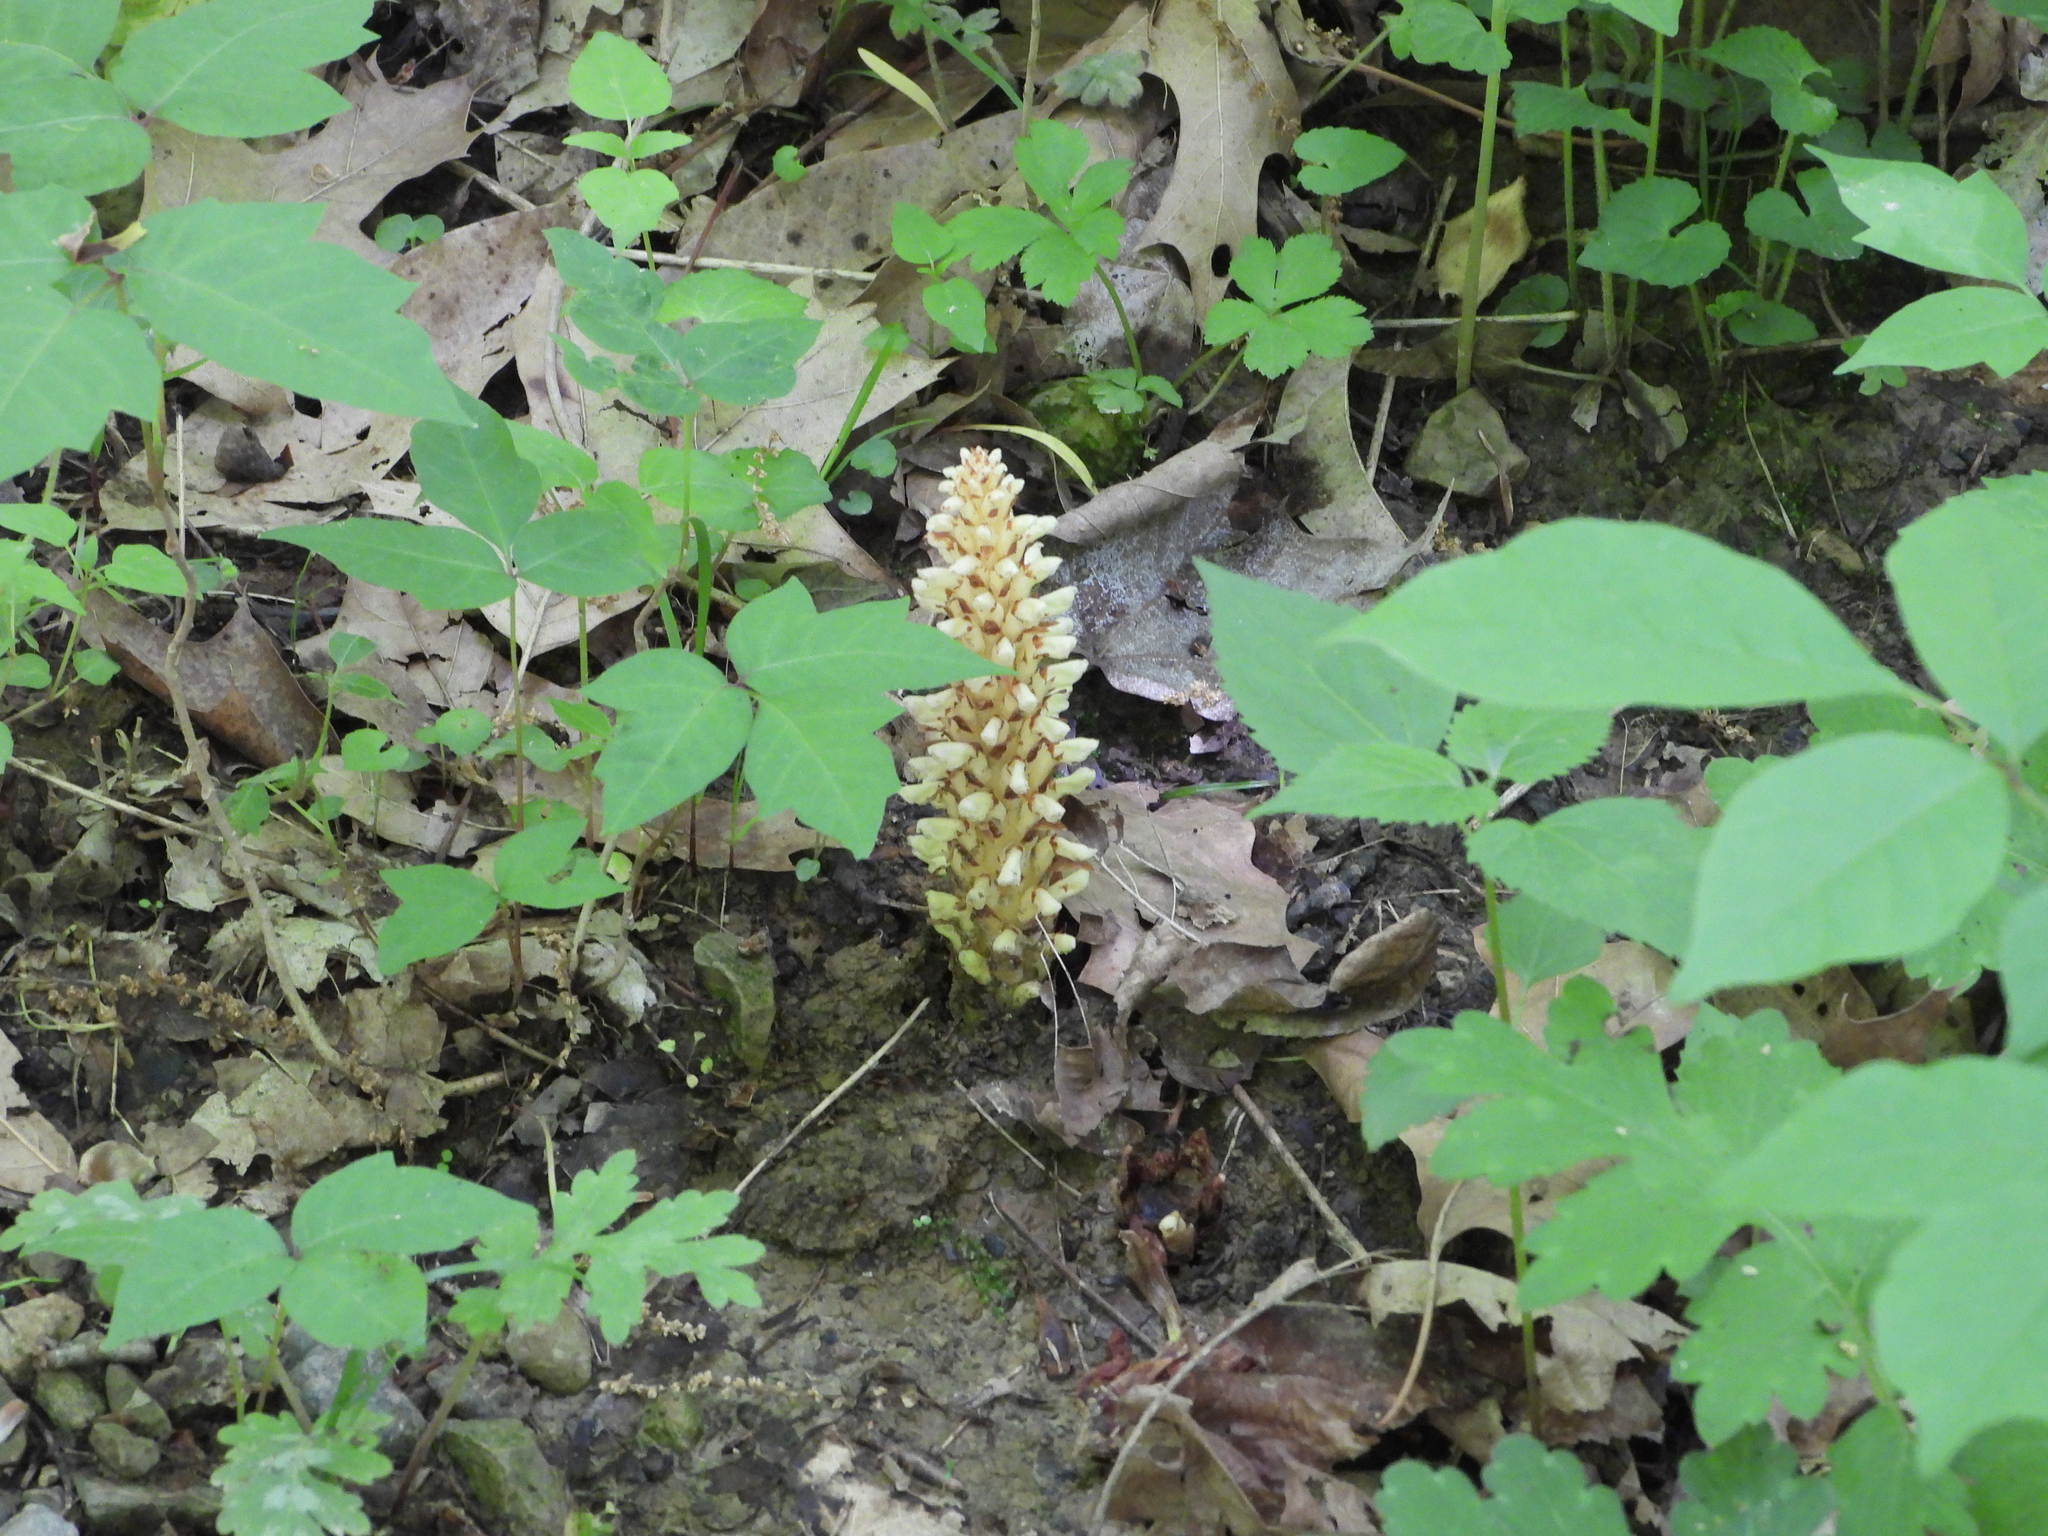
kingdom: Plantae
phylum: Tracheophyta
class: Magnoliopsida
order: Lamiales
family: Orobanchaceae
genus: Conopholis
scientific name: Conopholis americana
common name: American cancer-root
